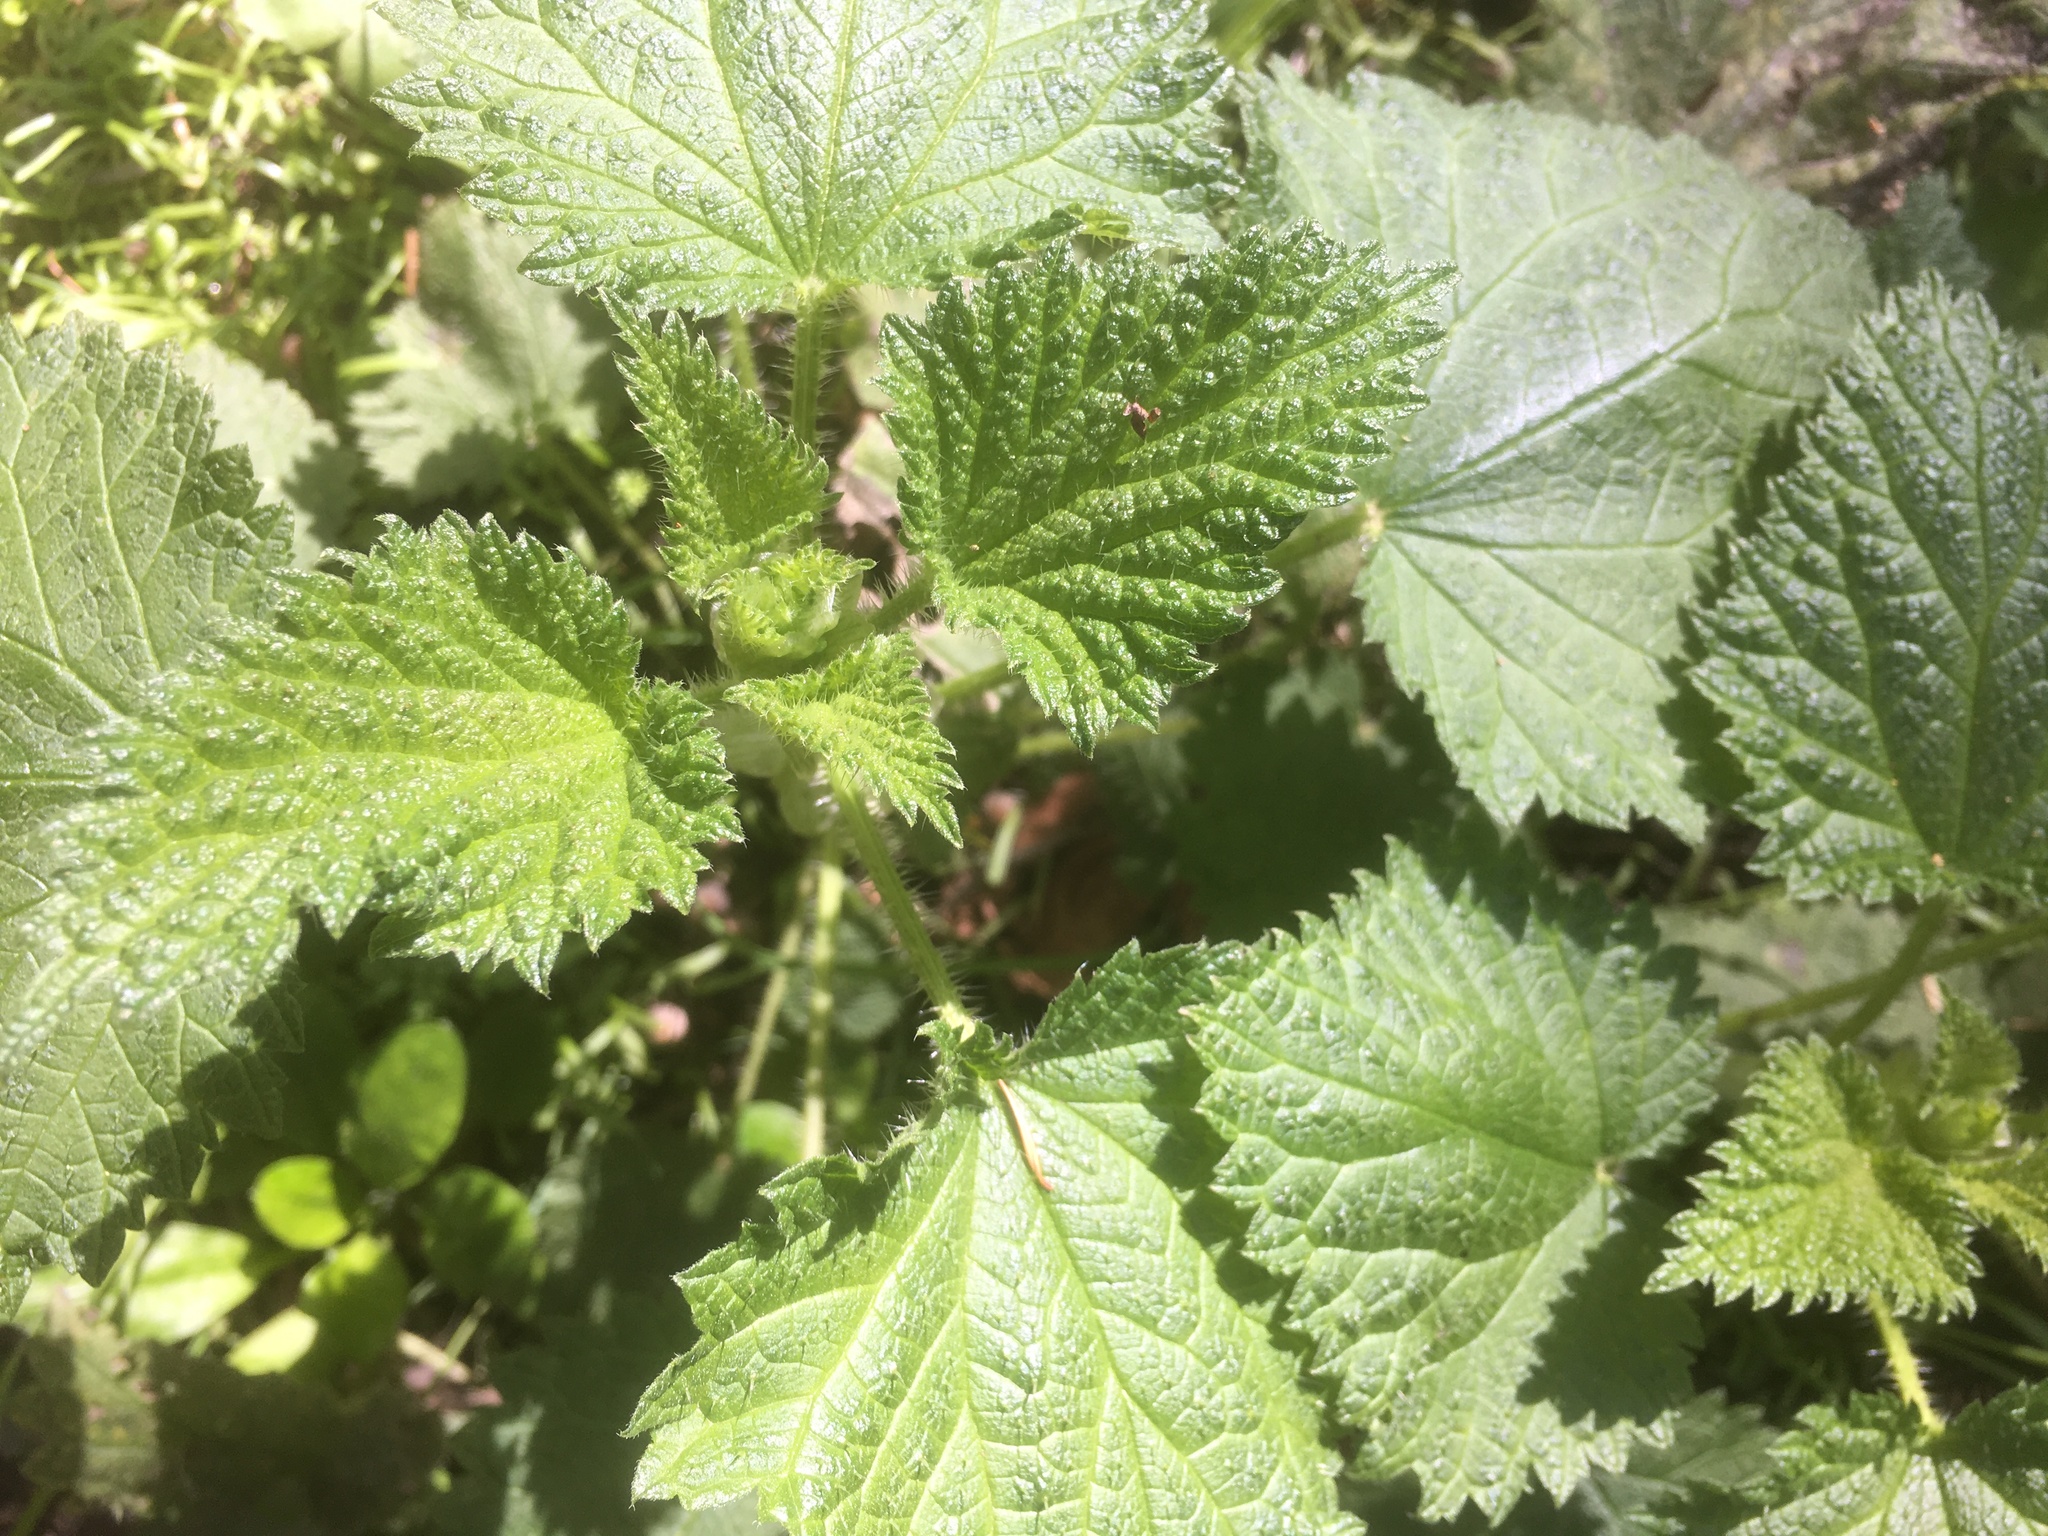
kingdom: Plantae
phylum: Tracheophyta
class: Magnoliopsida
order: Rosales
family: Urticaceae
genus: Urtica
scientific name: Urtica dioica
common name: Common nettle
